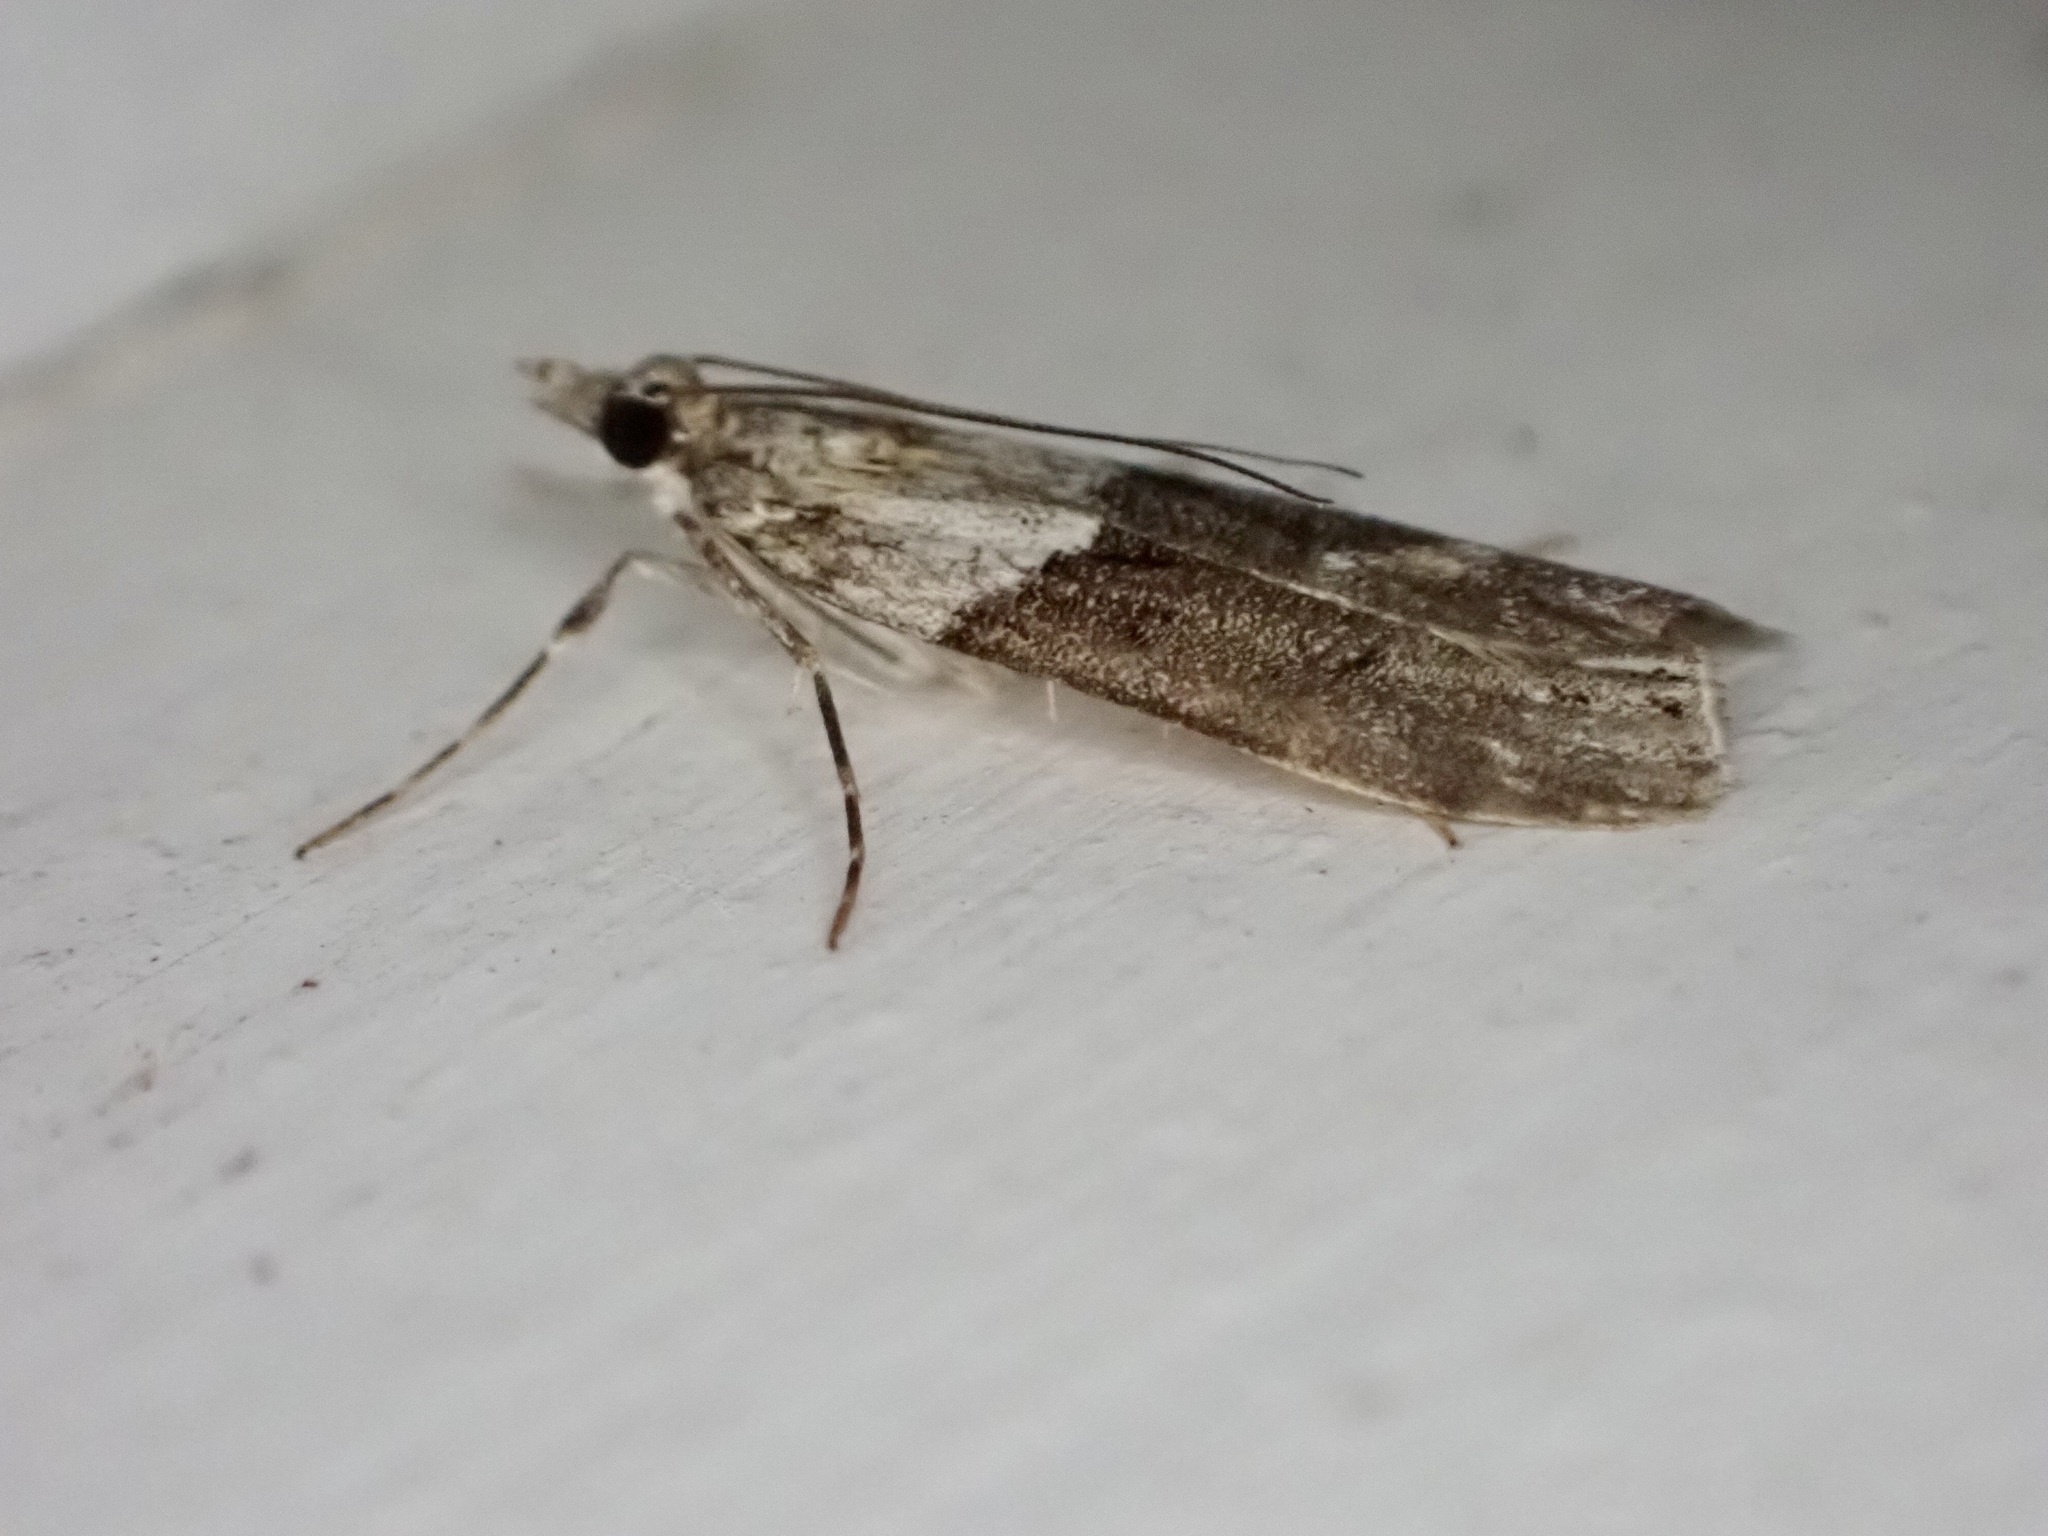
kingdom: Animalia
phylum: Arthropoda
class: Insecta
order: Lepidoptera
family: Crambidae
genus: Eudonia
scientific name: Eudonia submarginalis
